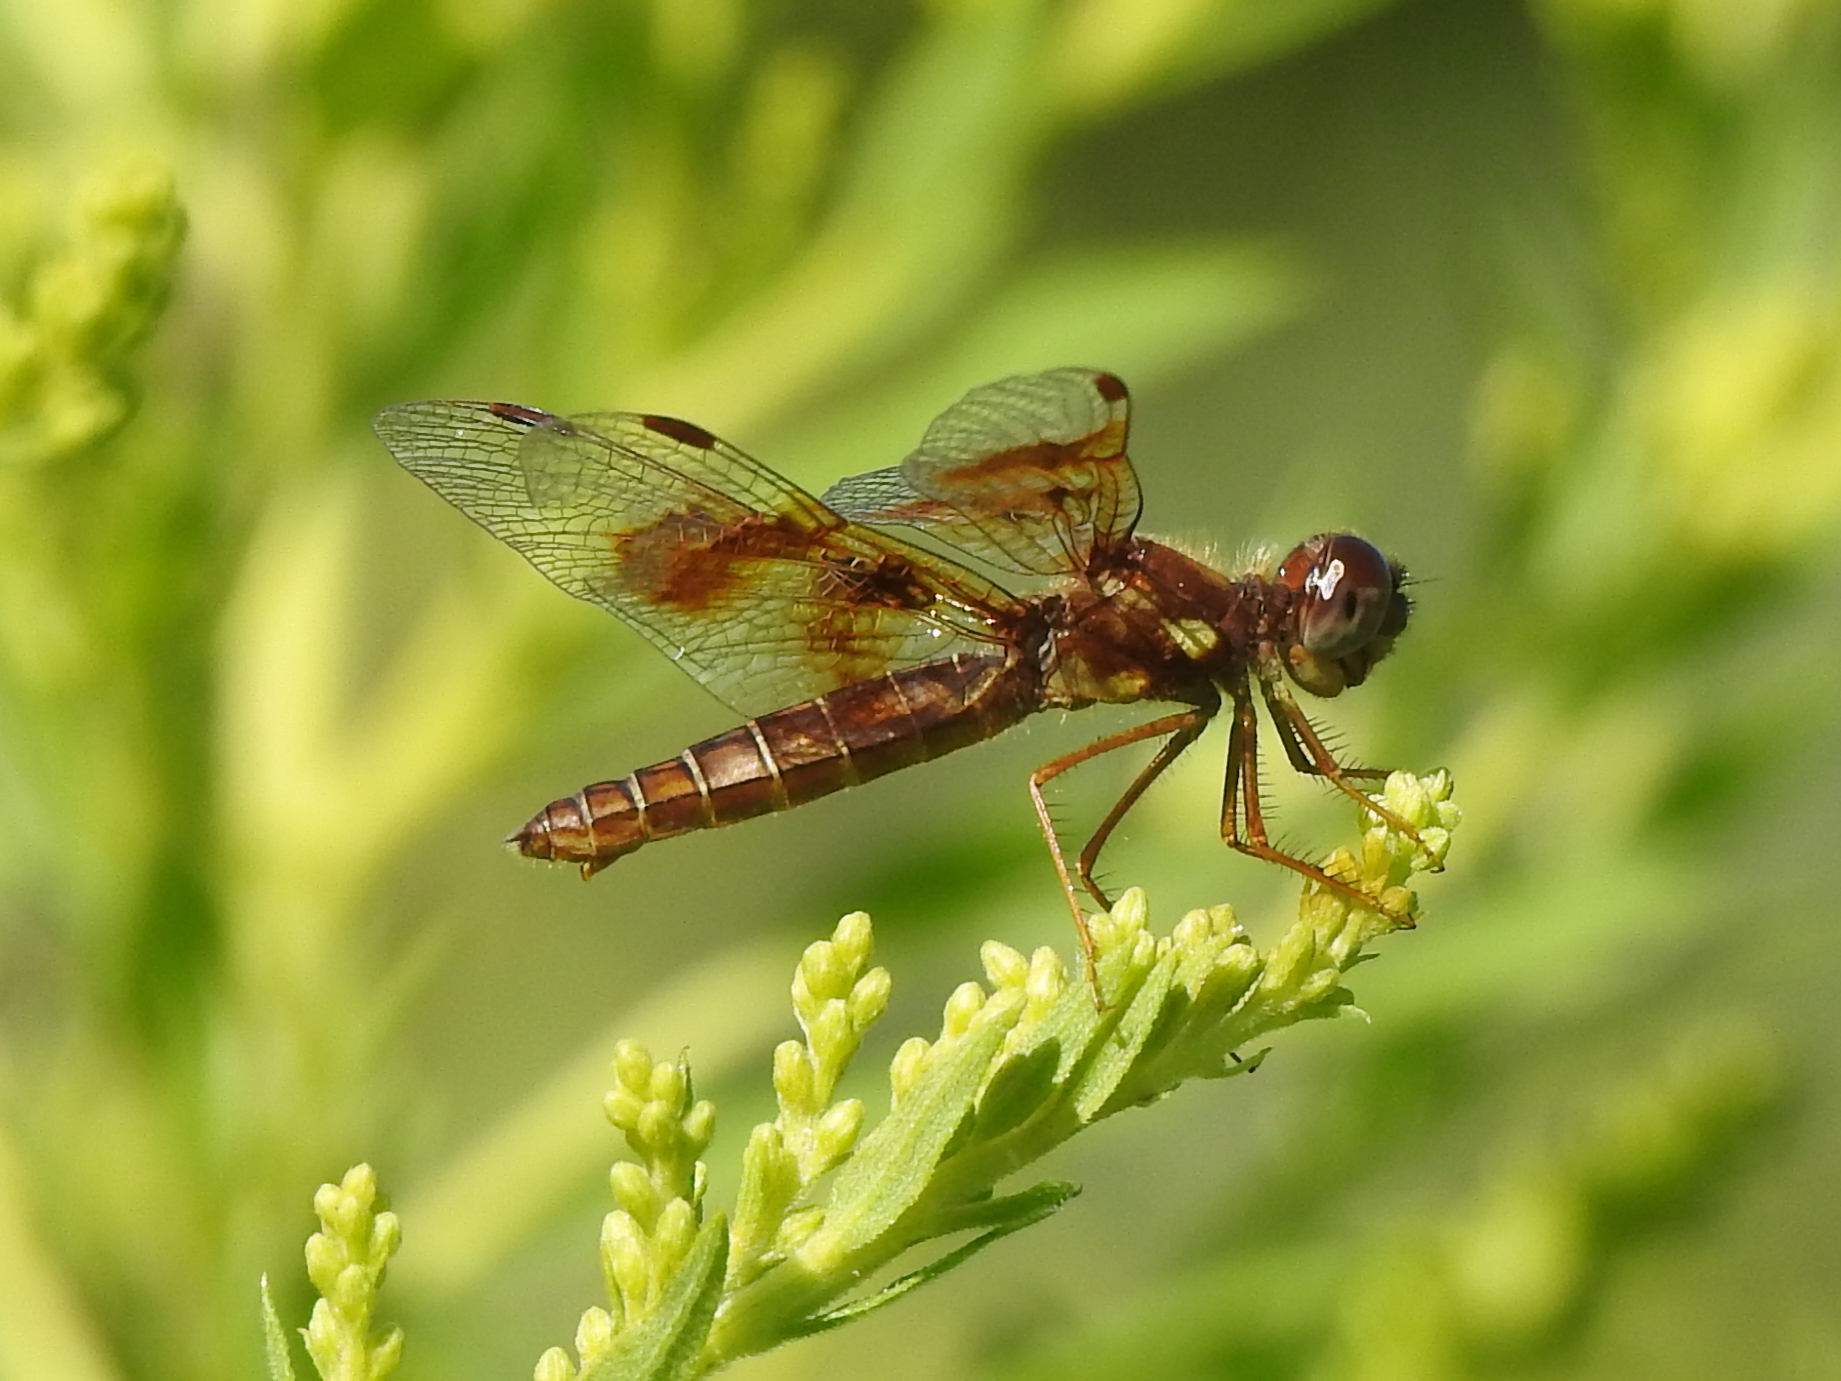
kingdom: Animalia
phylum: Arthropoda
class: Insecta
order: Odonata
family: Libellulidae
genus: Perithemis
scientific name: Perithemis tenera
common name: Eastern amberwing
